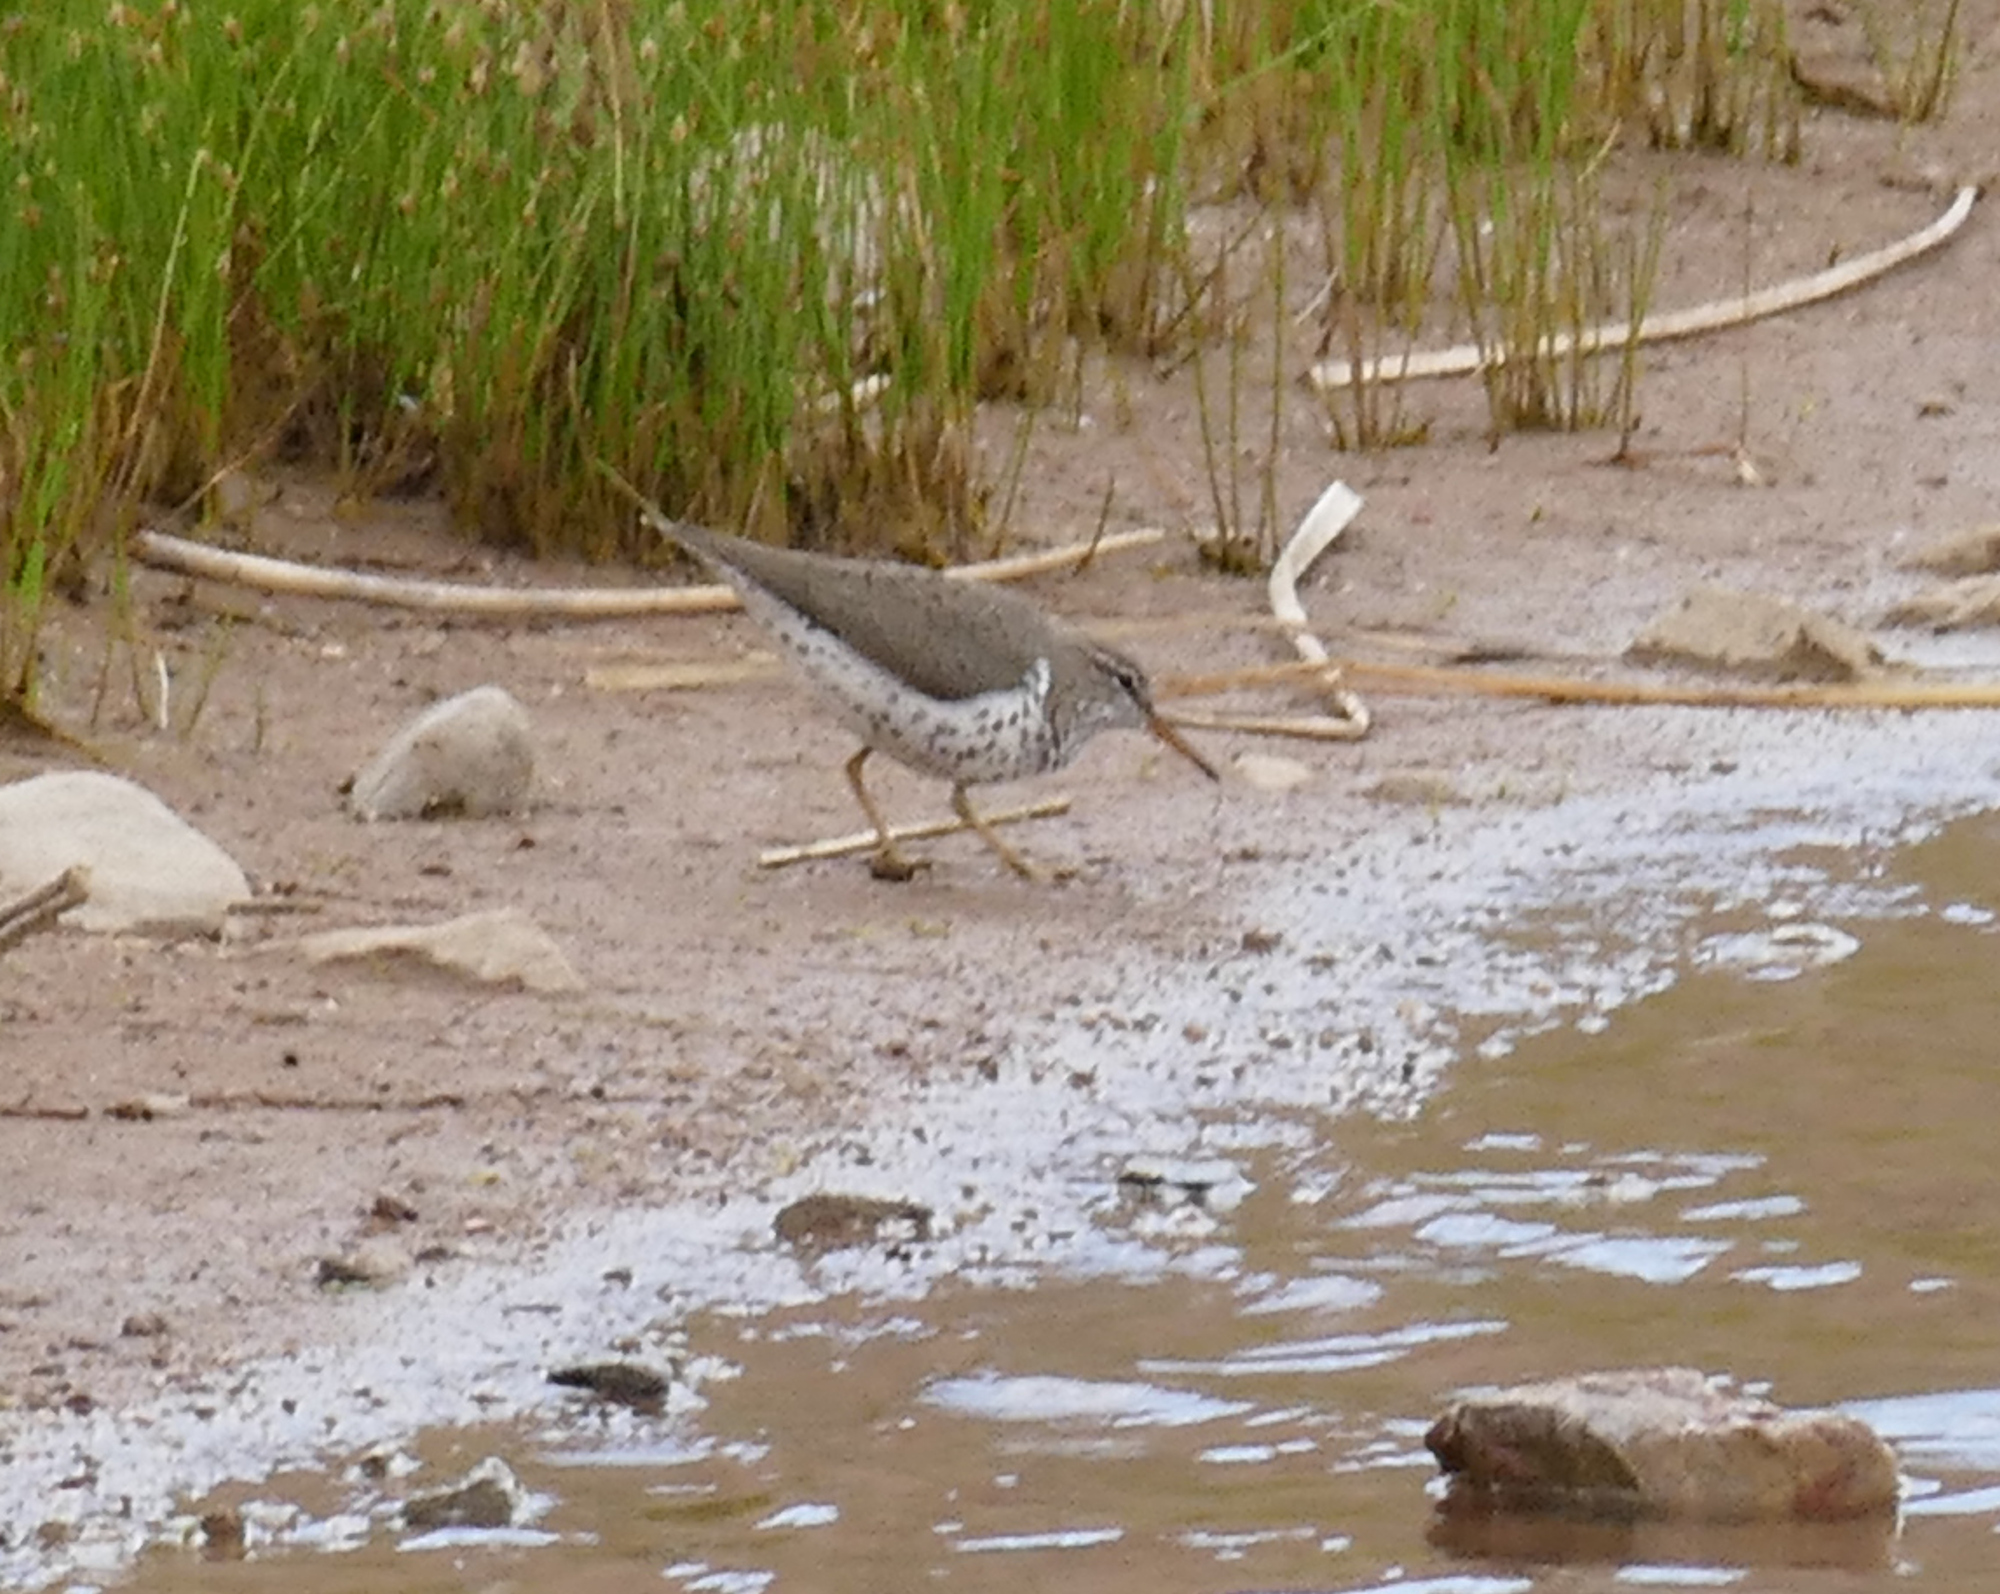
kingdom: Animalia
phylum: Chordata
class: Aves
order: Charadriiformes
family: Scolopacidae
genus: Actitis
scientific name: Actitis macularius
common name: Spotted sandpiper
